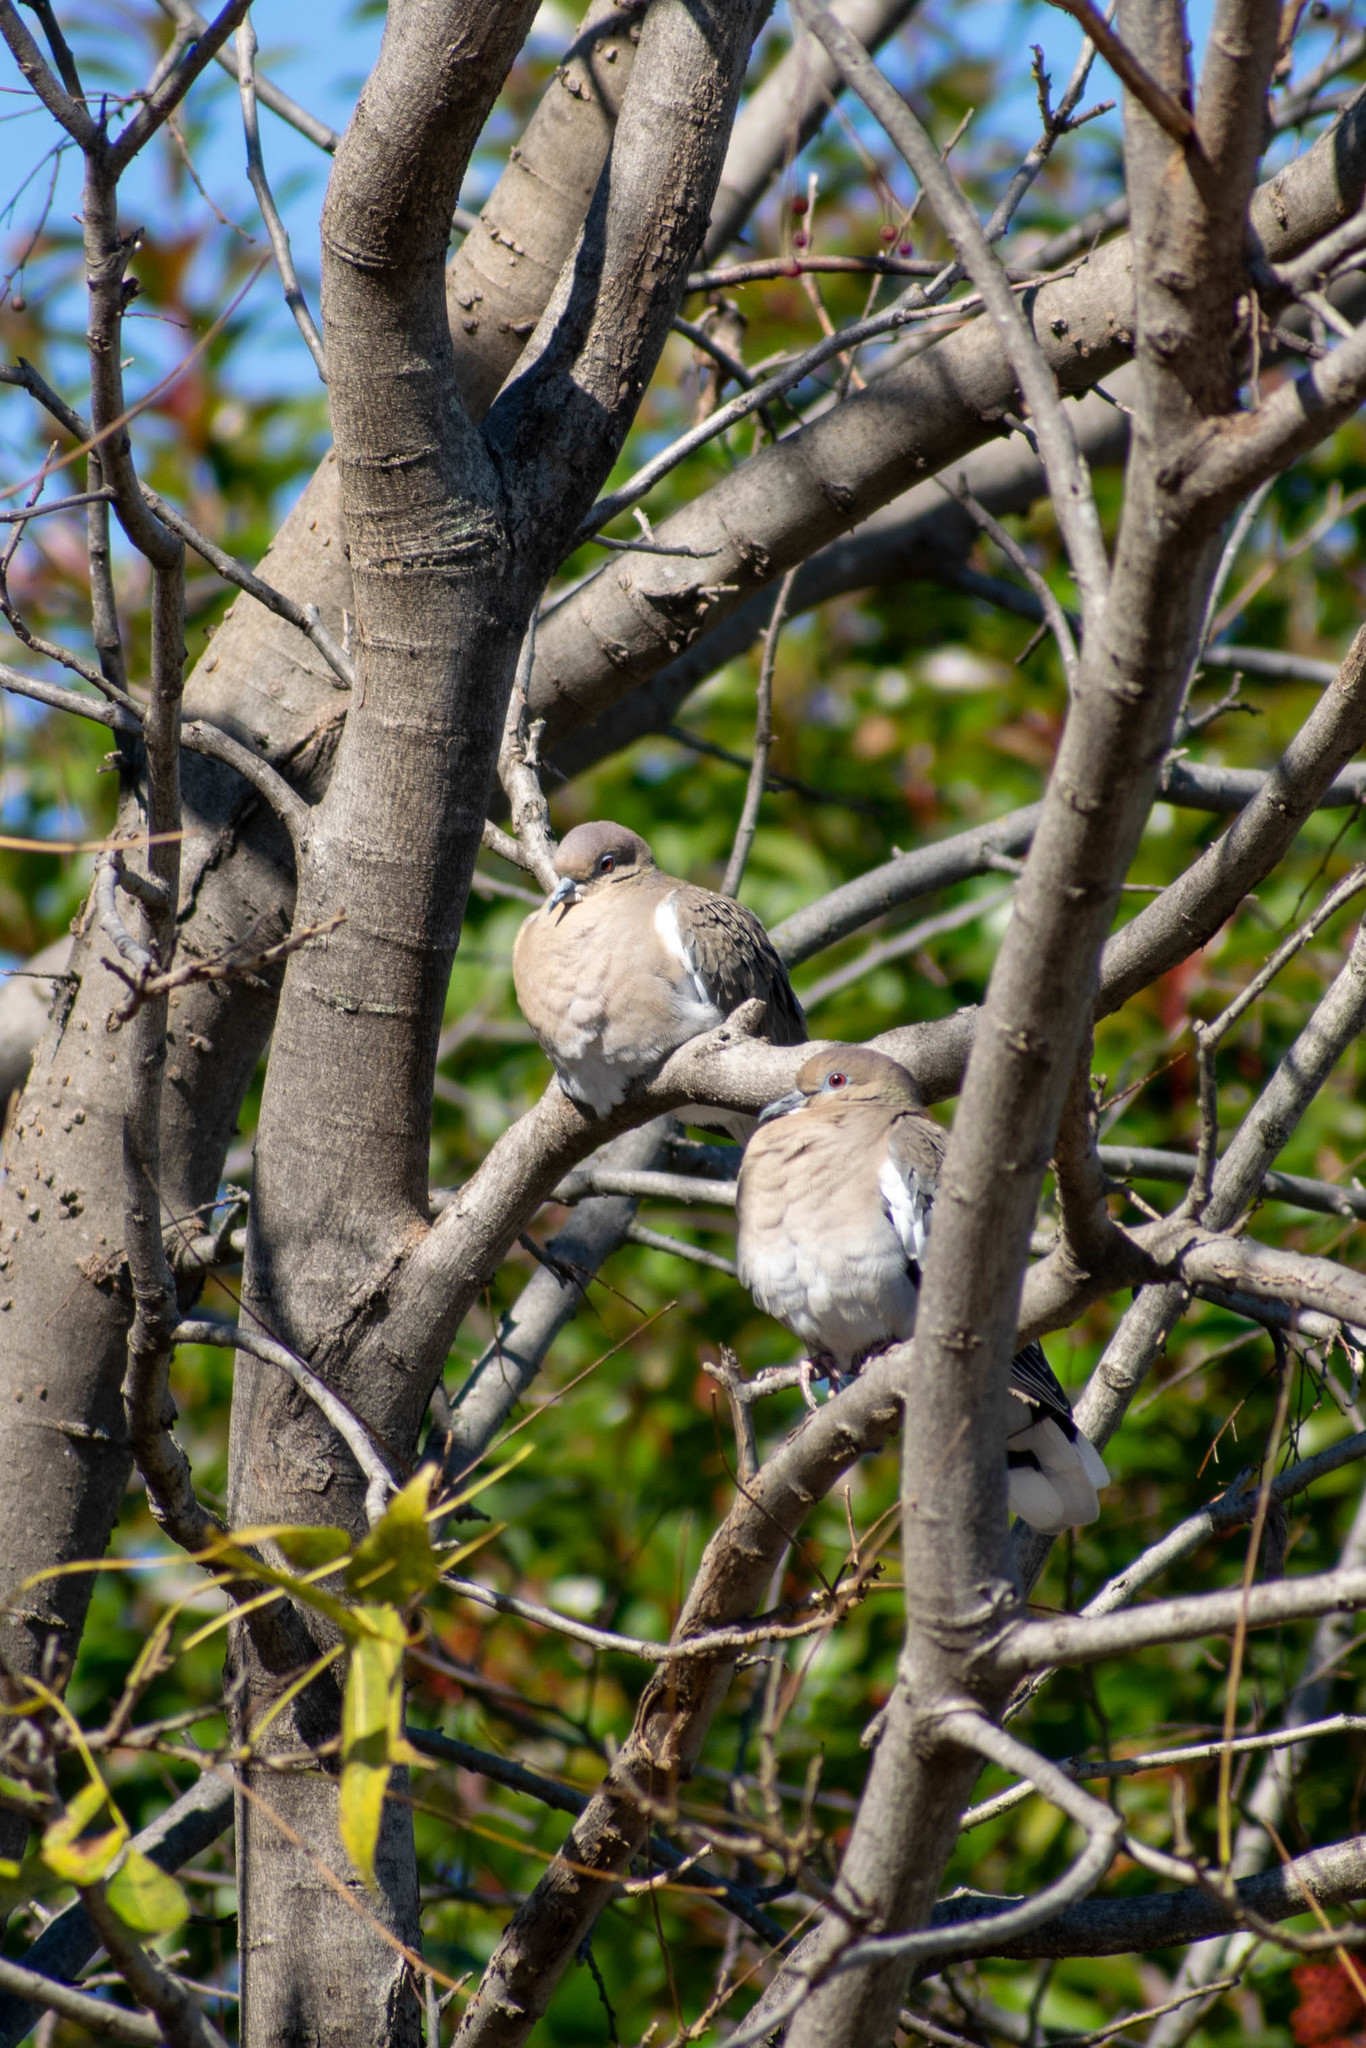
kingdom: Animalia
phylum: Chordata
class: Aves
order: Columbiformes
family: Columbidae
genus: Zenaida
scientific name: Zenaida asiatica
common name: White-winged dove
